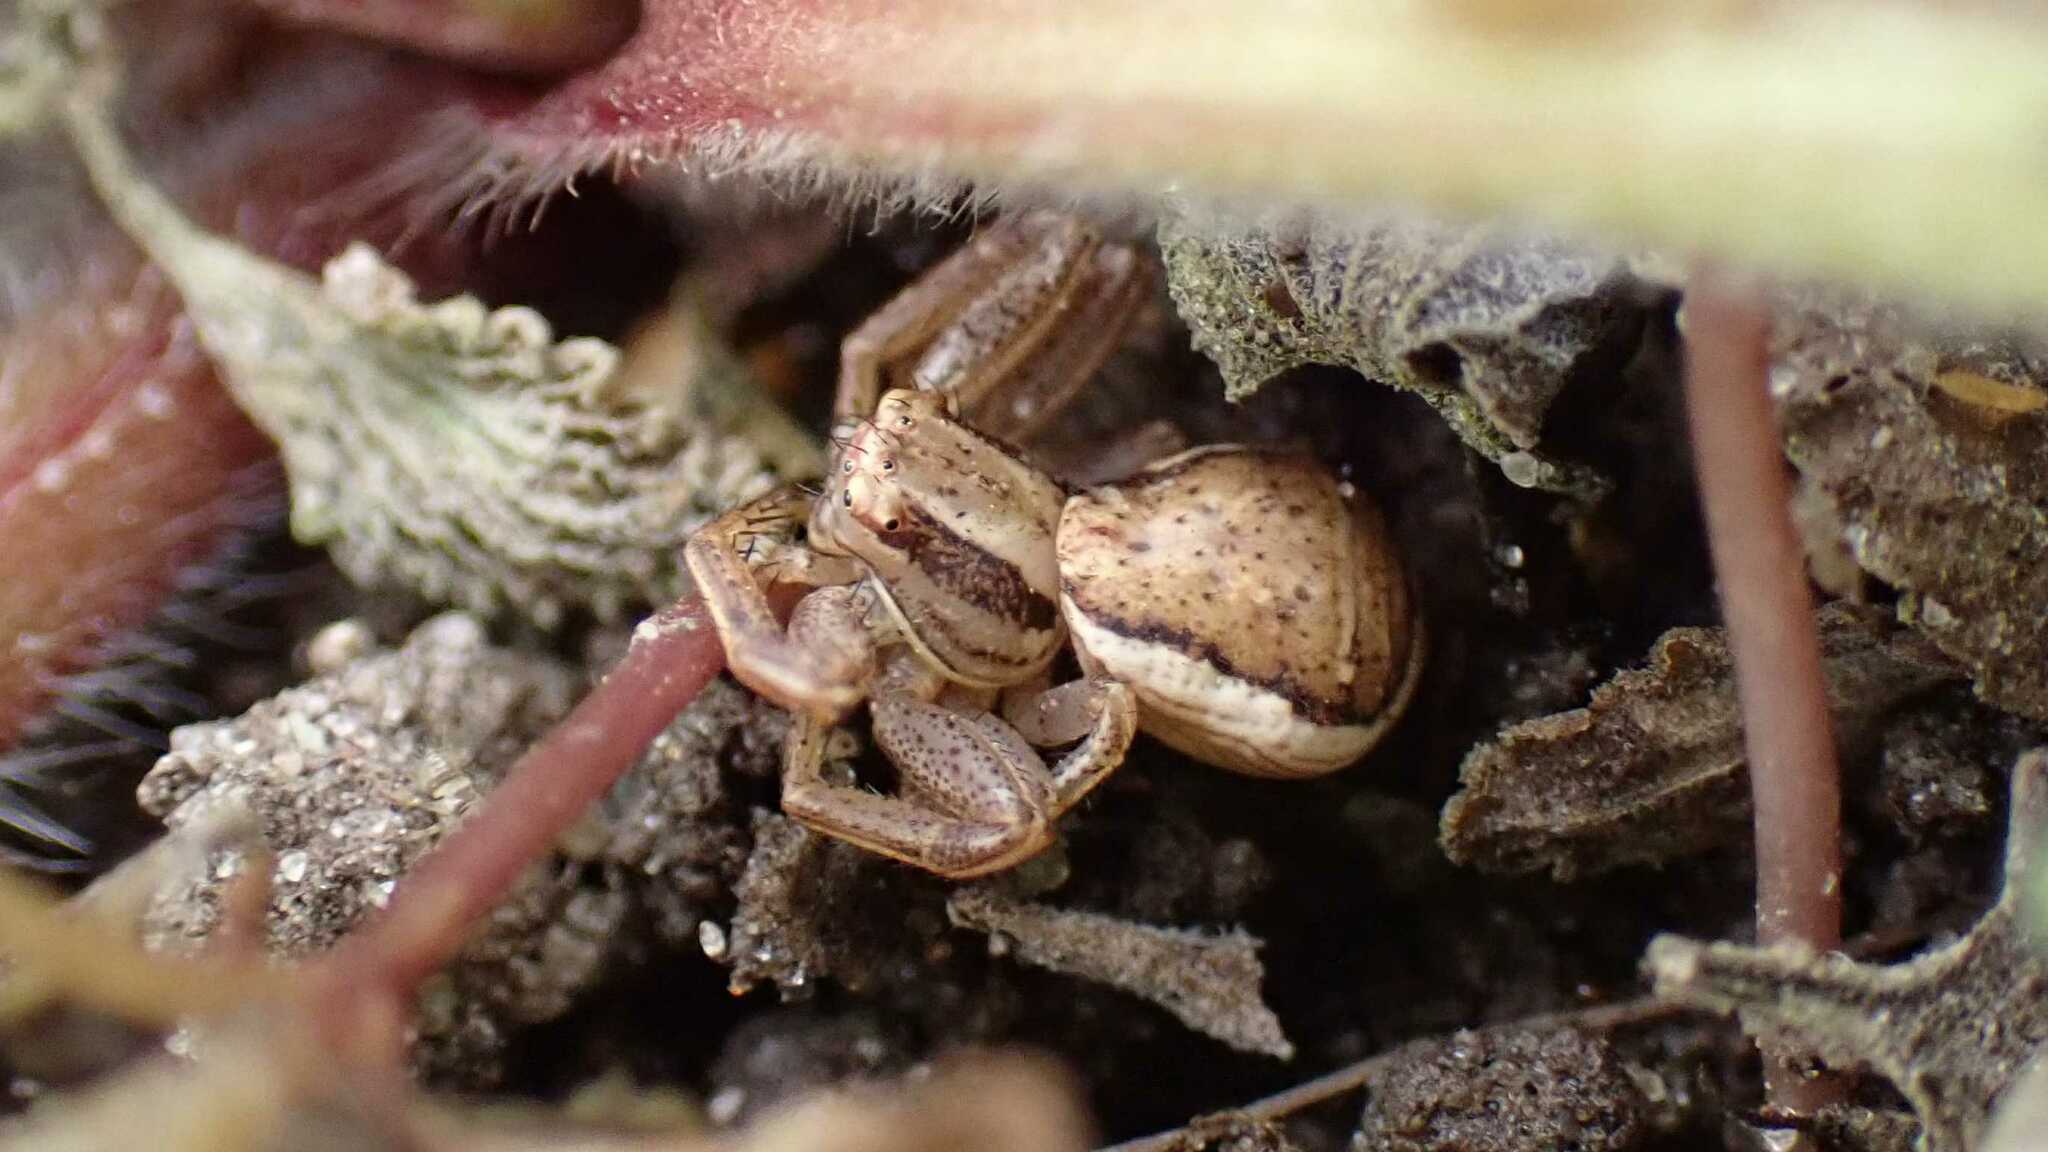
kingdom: Animalia
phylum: Arthropoda
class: Arachnida
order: Araneae
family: Thomisidae
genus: Xysticus
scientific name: Xysticus ulmi
